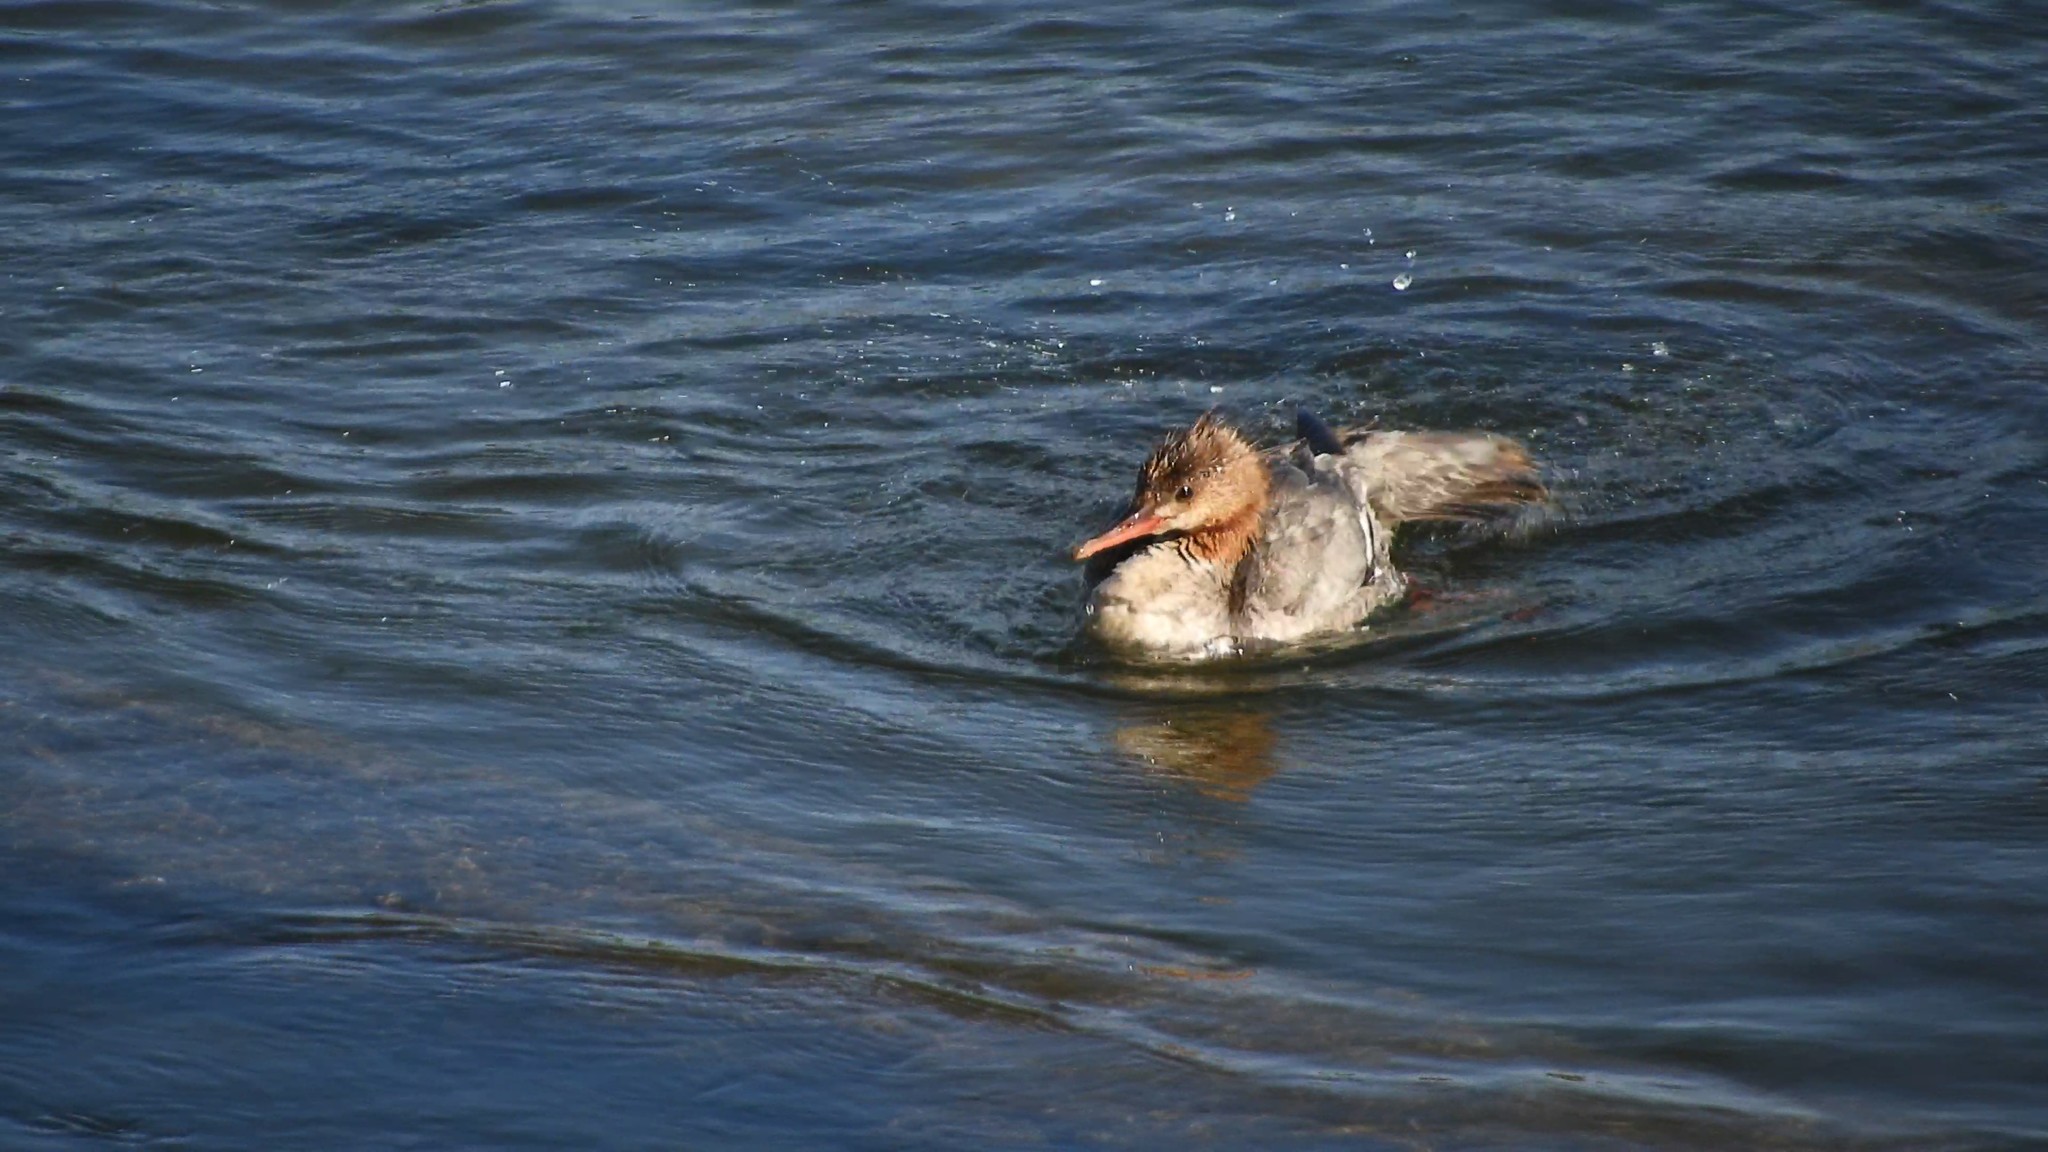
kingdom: Animalia
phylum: Chordata
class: Aves
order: Anseriformes
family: Anatidae
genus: Mergus
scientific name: Mergus merganser
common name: Common merganser
